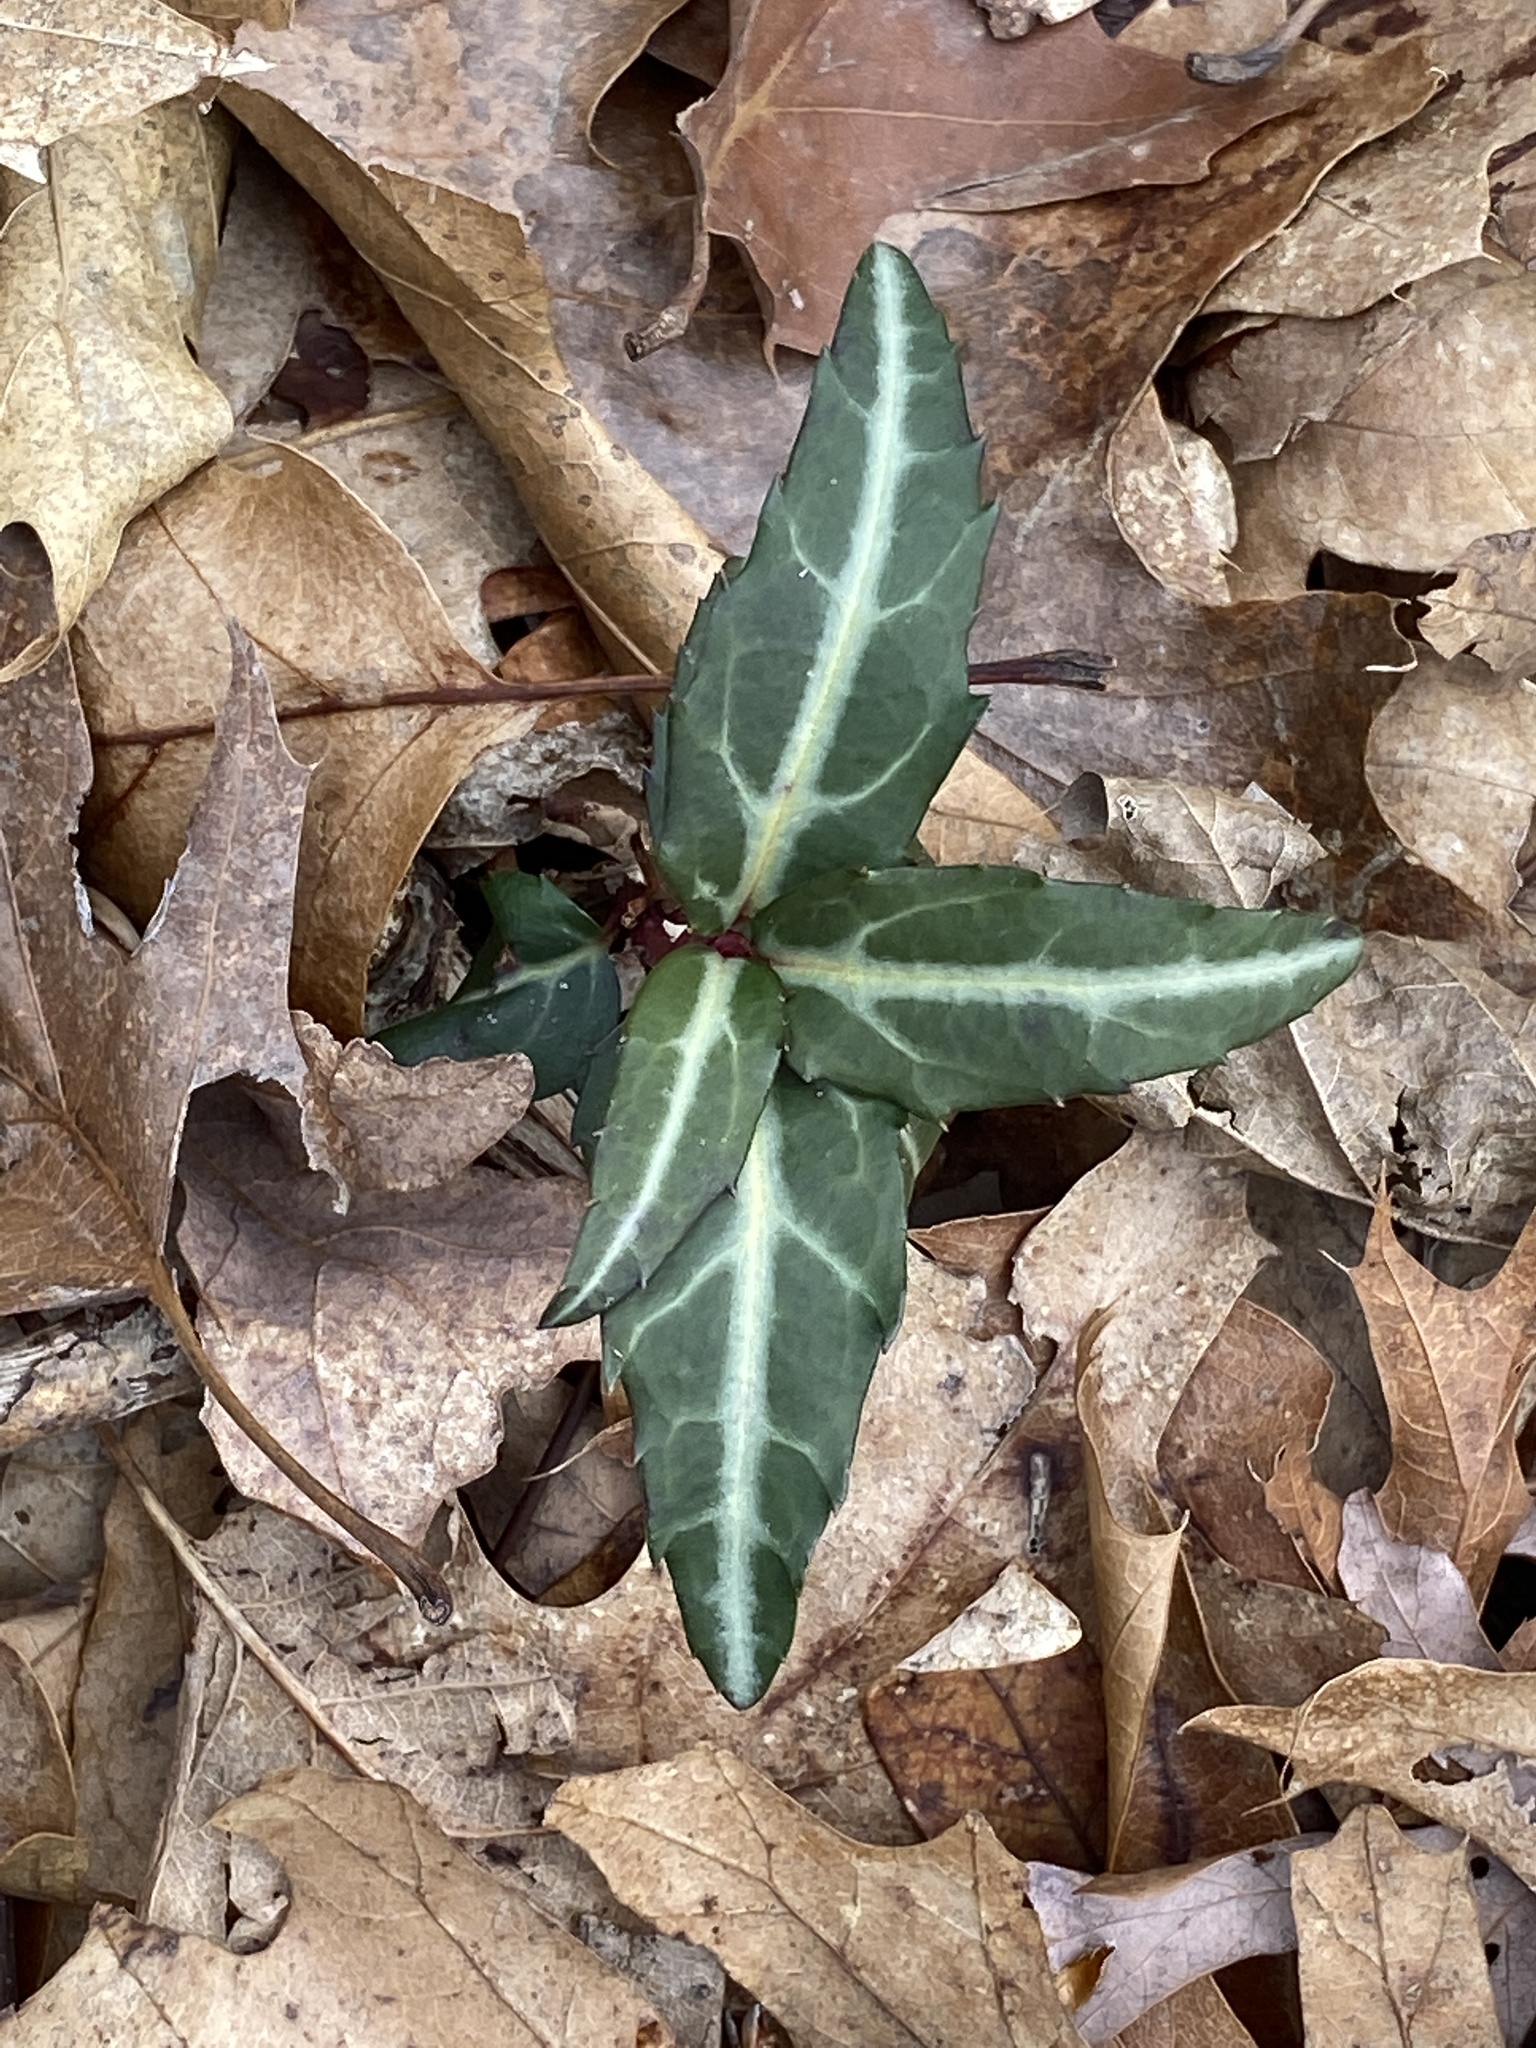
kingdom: Plantae
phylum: Tracheophyta
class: Magnoliopsida
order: Ericales
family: Ericaceae
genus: Chimaphila
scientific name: Chimaphila maculata
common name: Spotted pipsissewa
